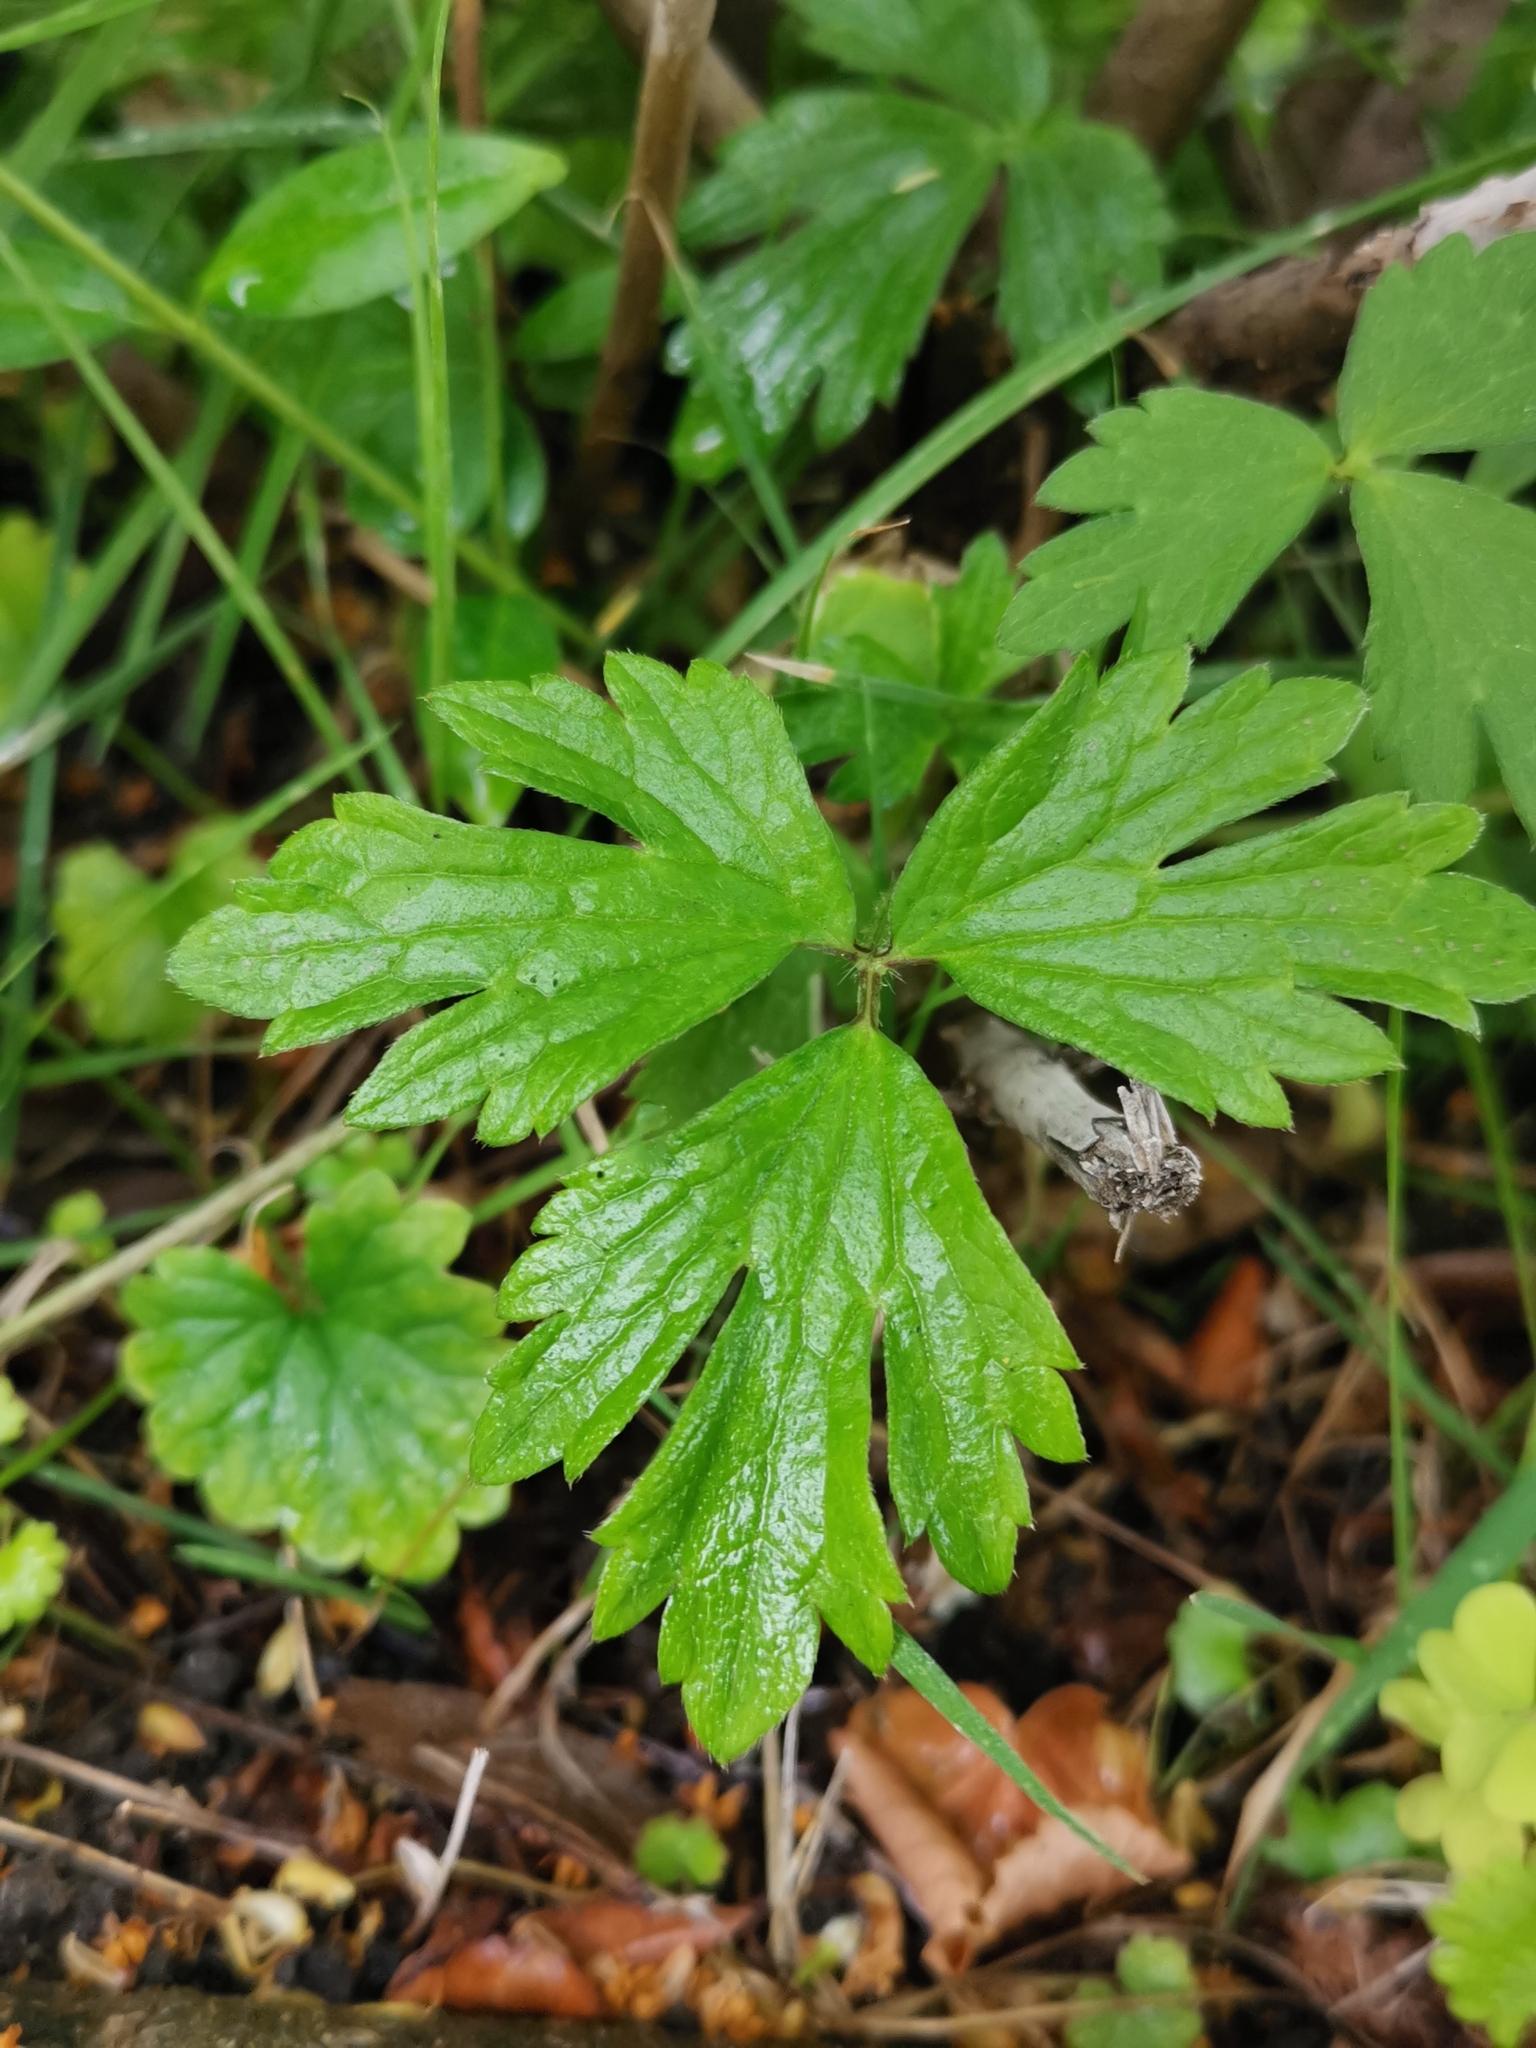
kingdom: Plantae
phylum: Tracheophyta
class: Magnoliopsida
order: Ranunculales
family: Ranunculaceae
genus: Ranunculus
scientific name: Ranunculus repens
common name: Creeping buttercup
